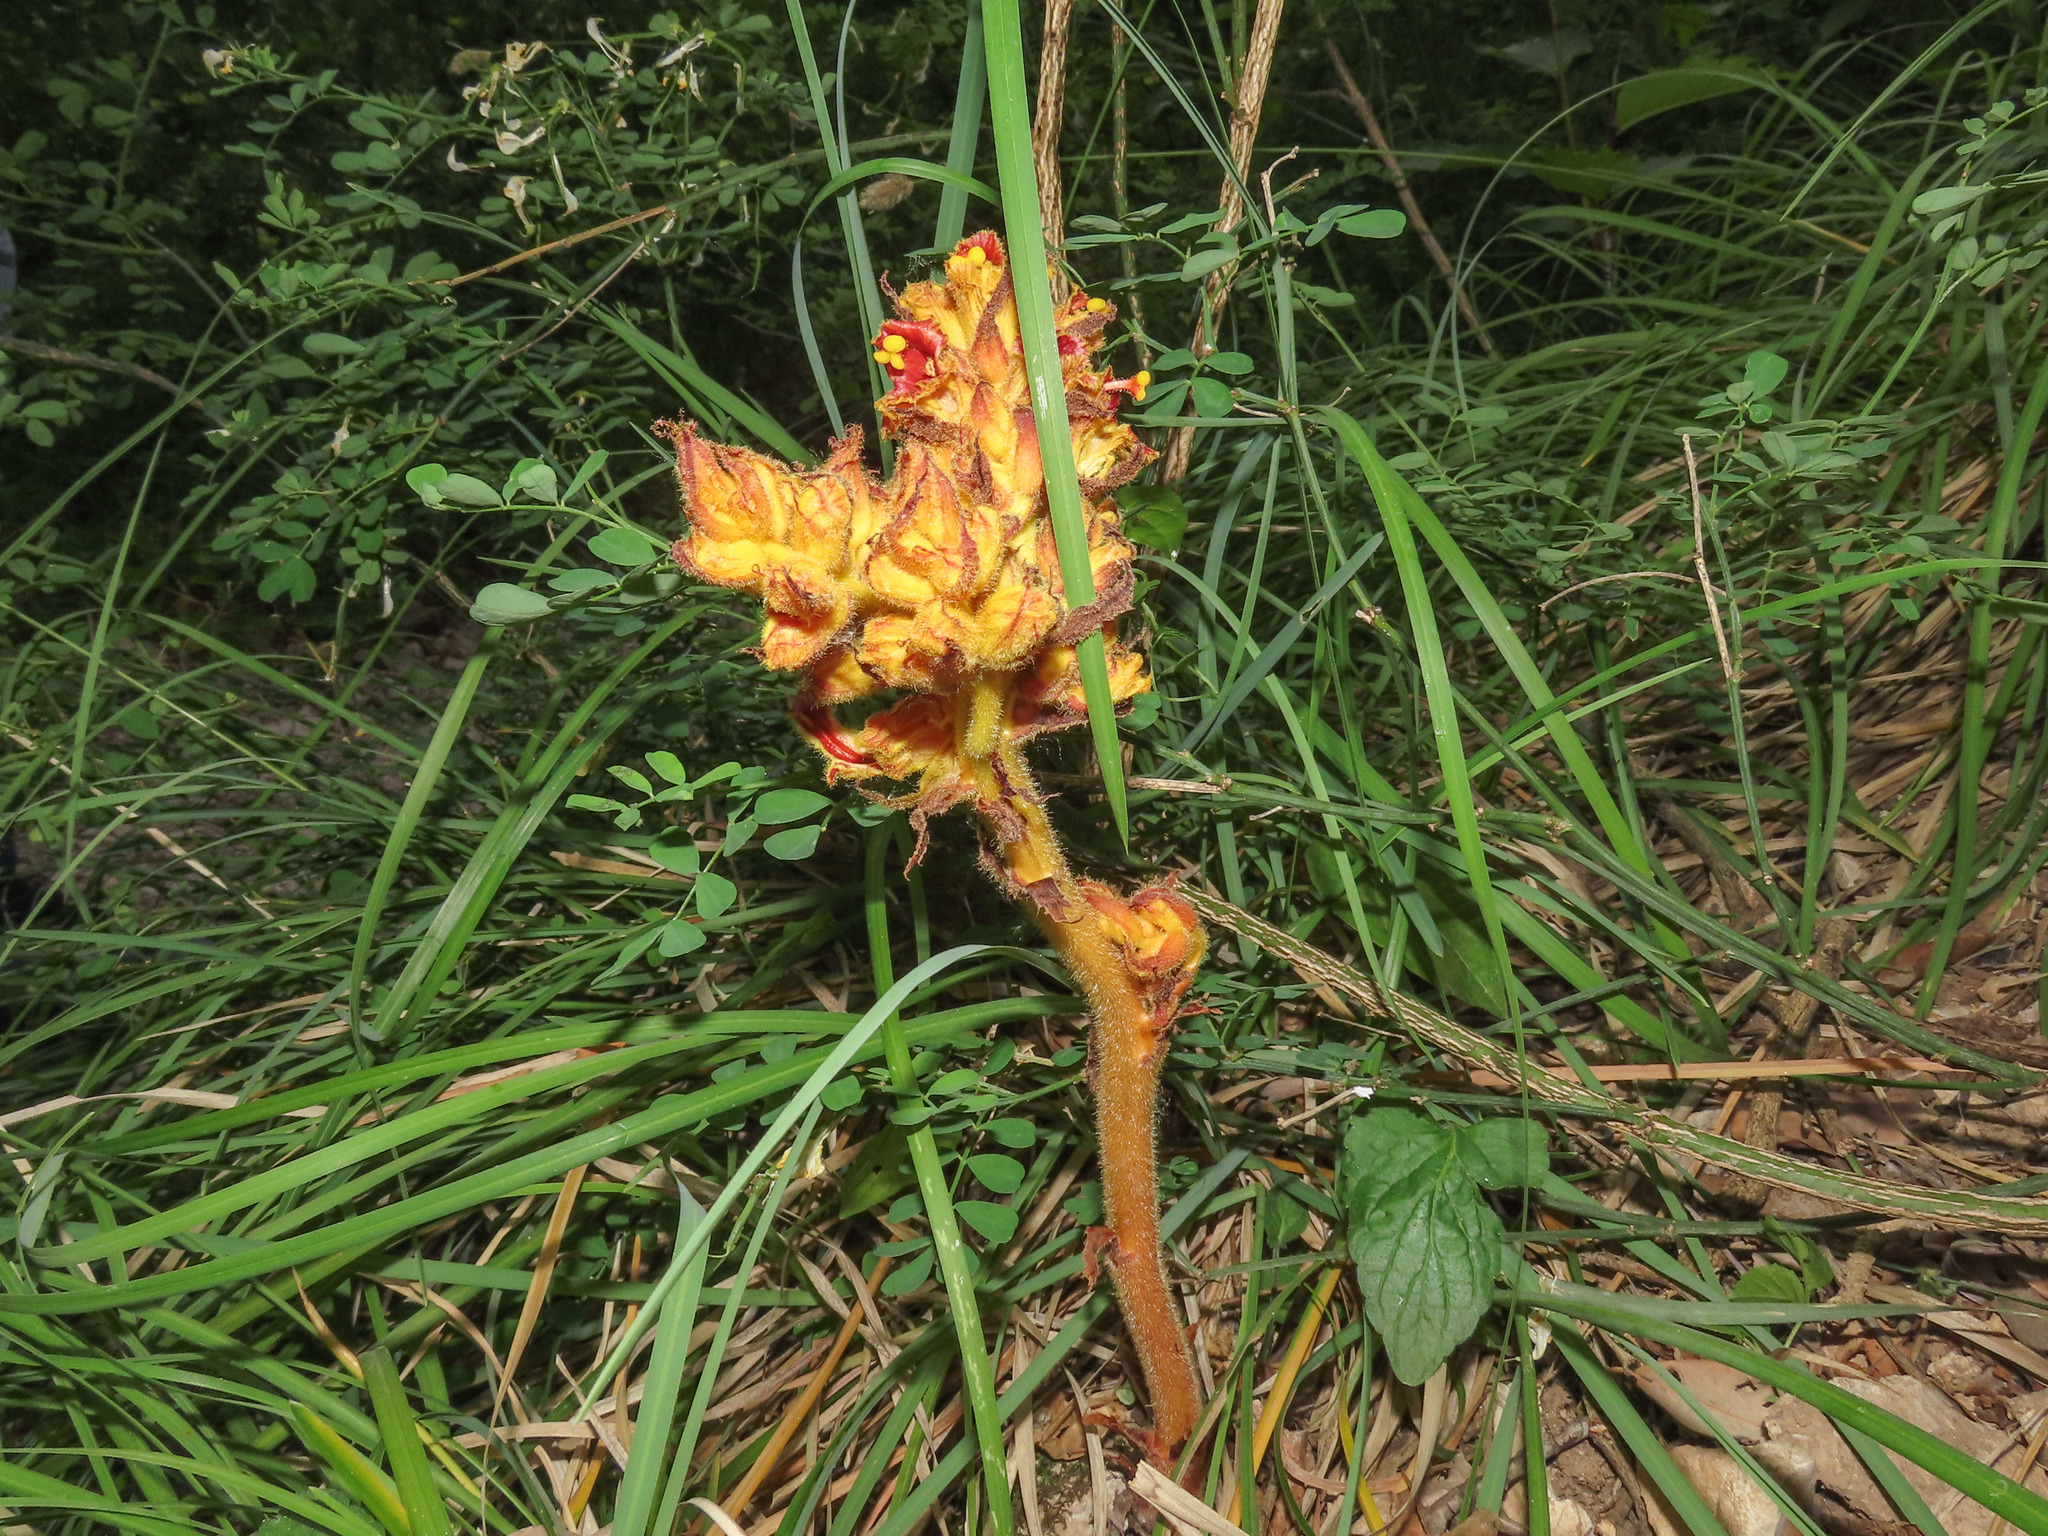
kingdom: Plantae
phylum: Tracheophyta
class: Magnoliopsida
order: Lamiales
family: Orobanchaceae
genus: Orobanche
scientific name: Orobanche gracilis
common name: Slender broomrape
